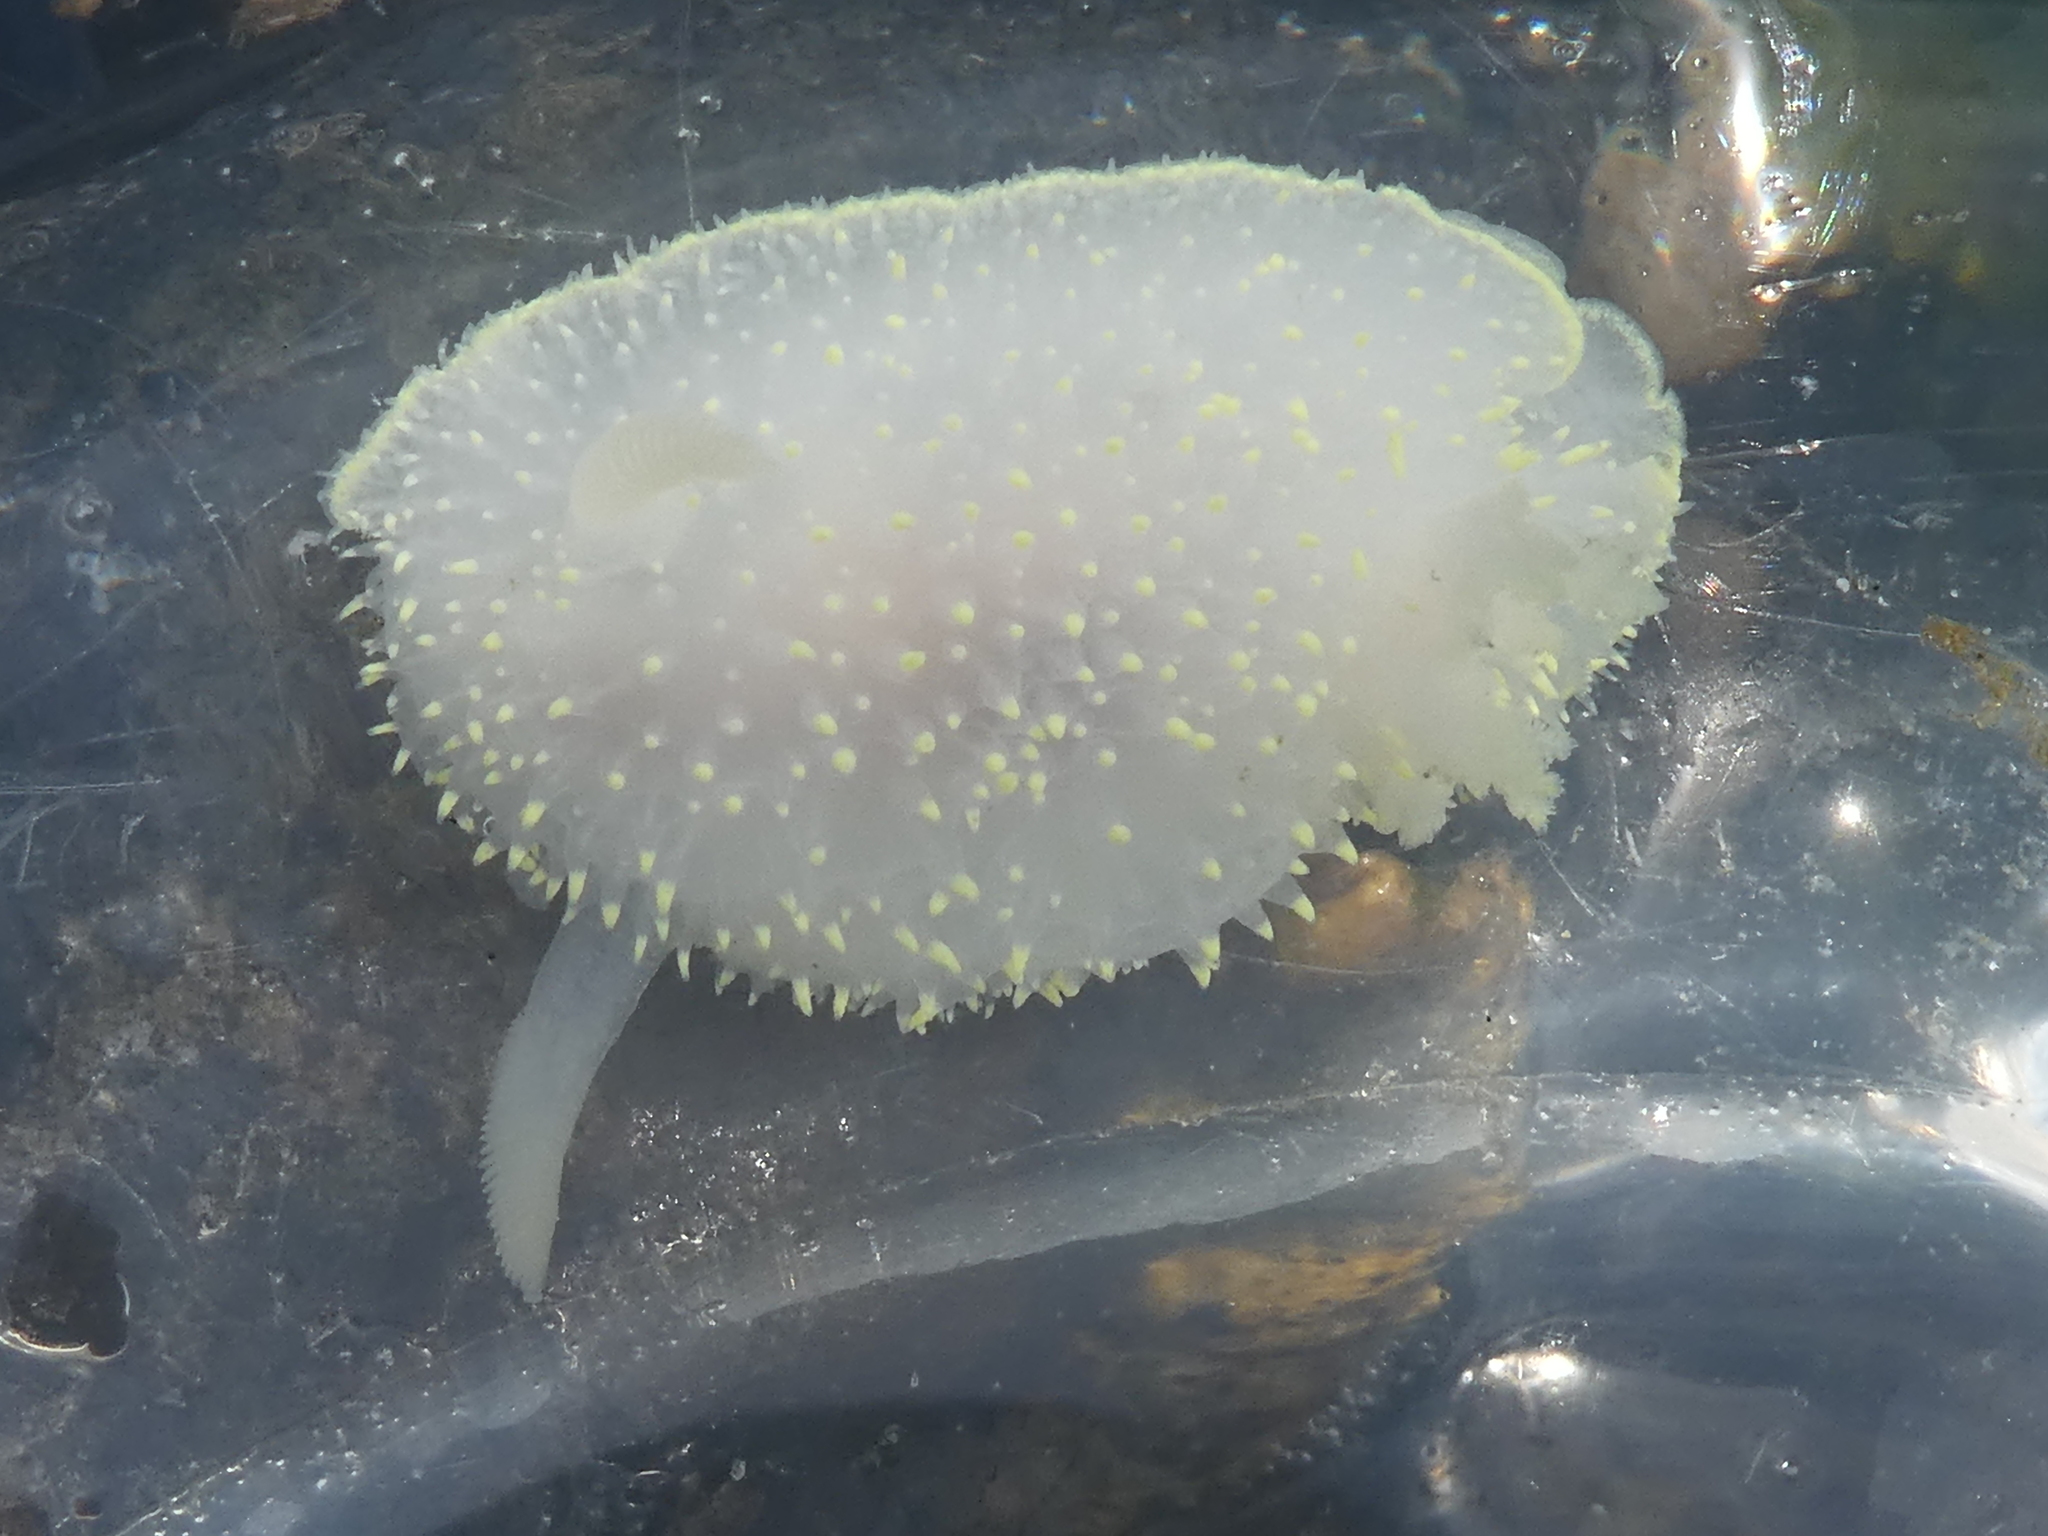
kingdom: Animalia
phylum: Mollusca
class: Gastropoda
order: Nudibranchia
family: Onchidorididae
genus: Acanthodoris
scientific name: Acanthodoris hudsoni
